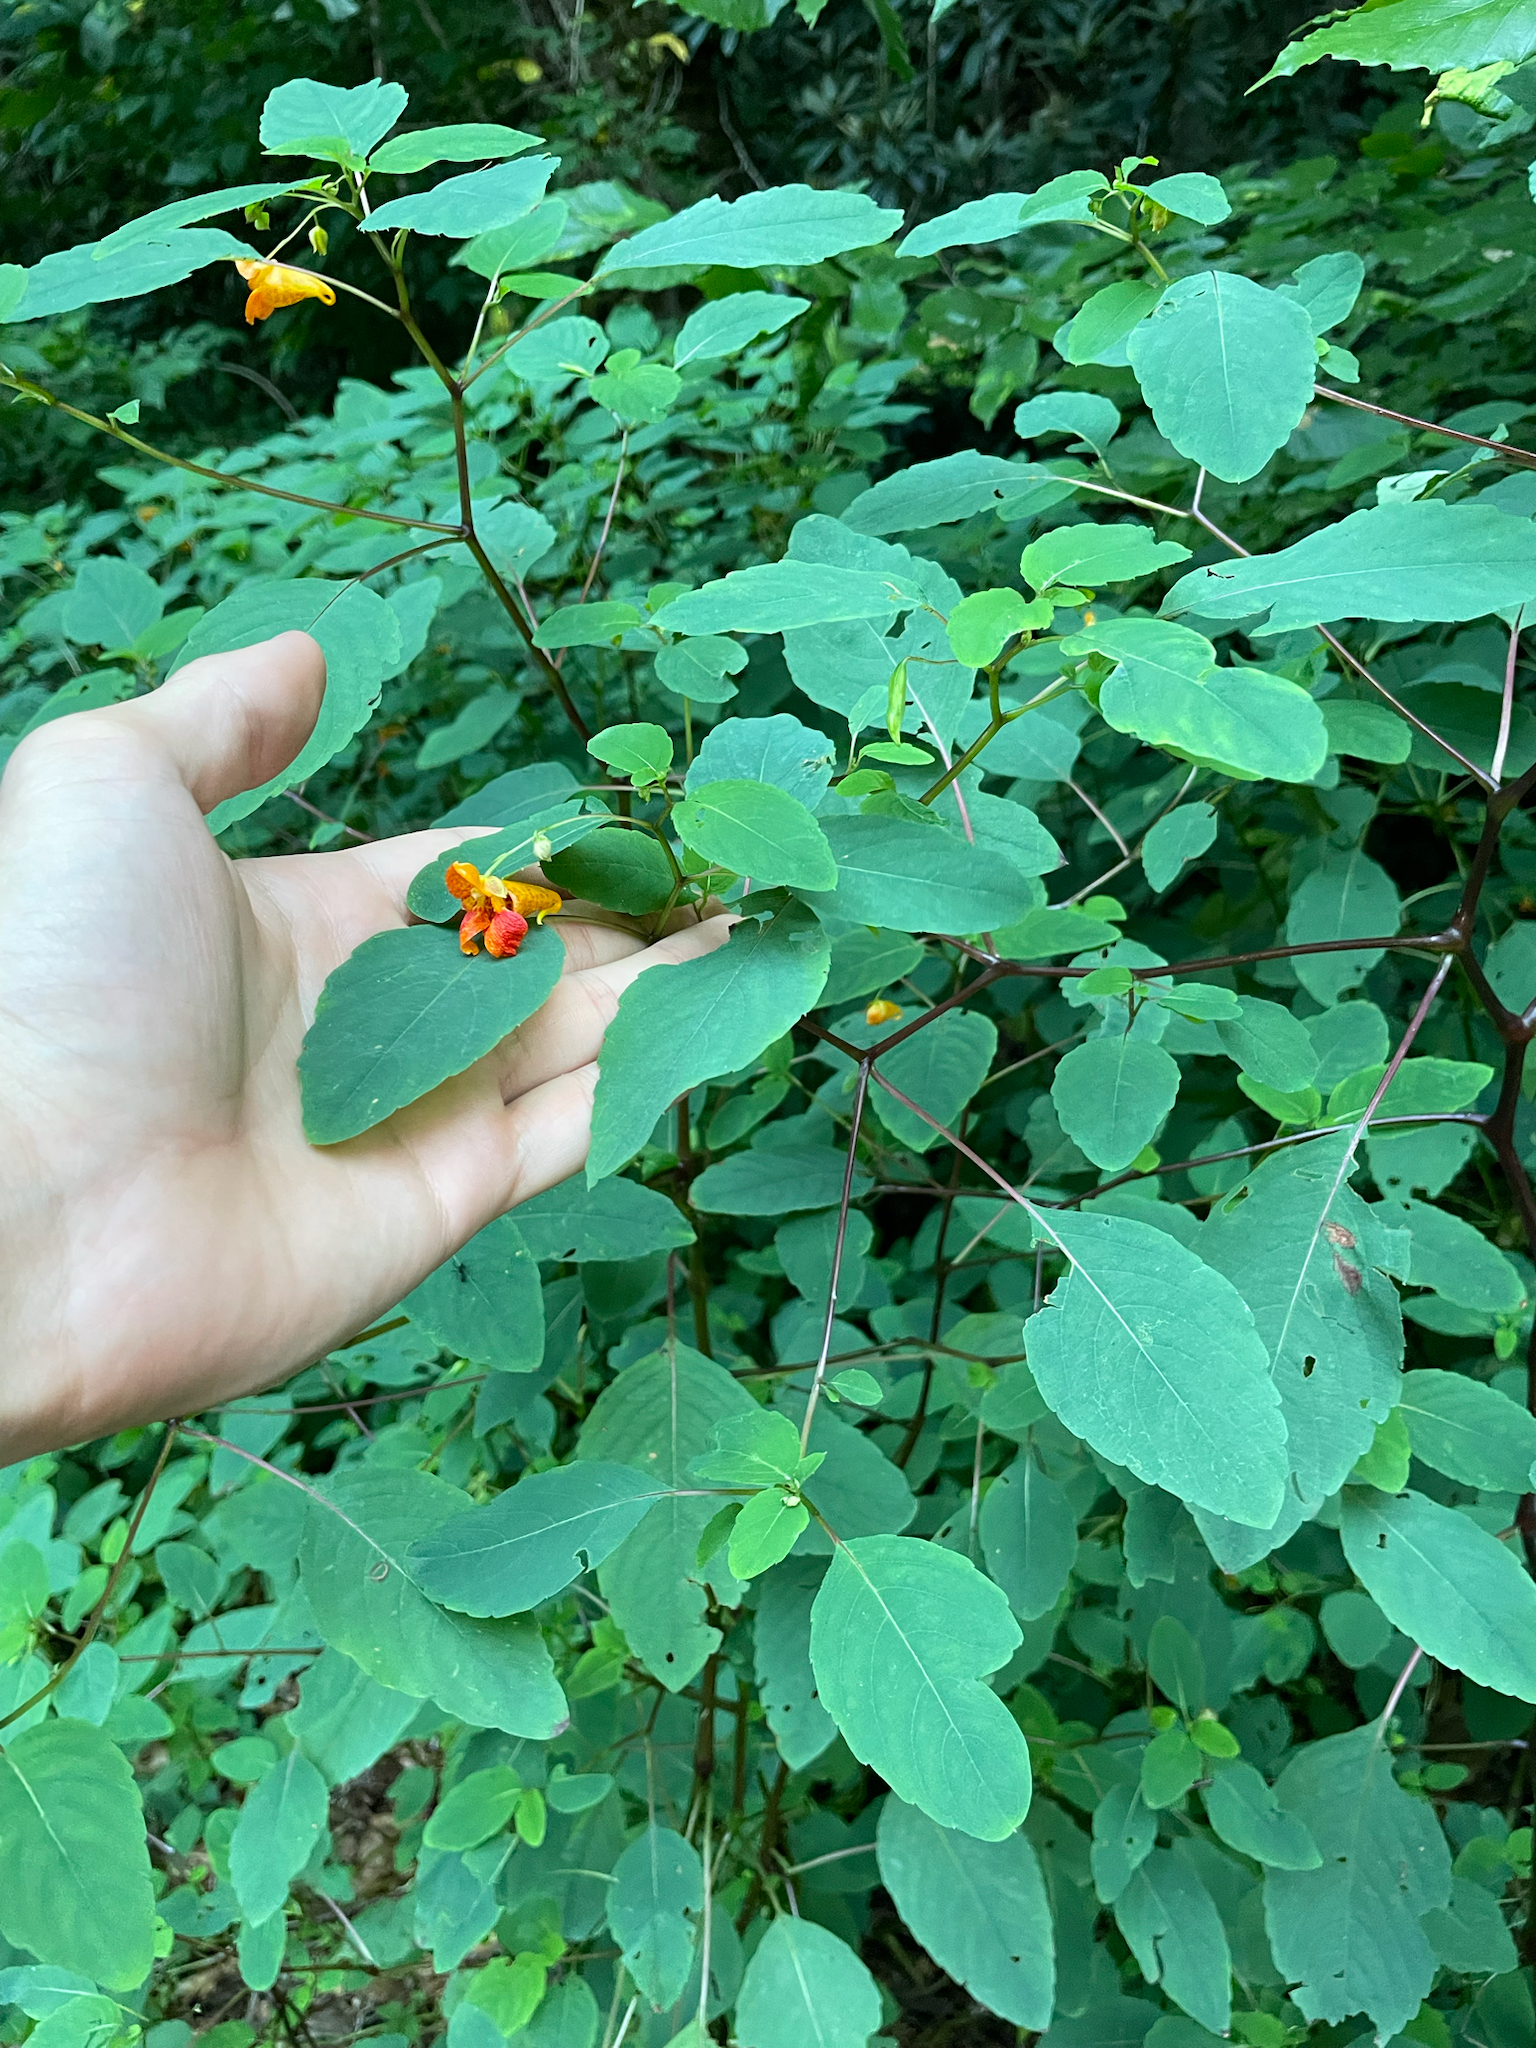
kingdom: Plantae
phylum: Tracheophyta
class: Magnoliopsida
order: Ericales
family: Balsaminaceae
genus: Impatiens
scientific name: Impatiens capensis
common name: Orange balsam
